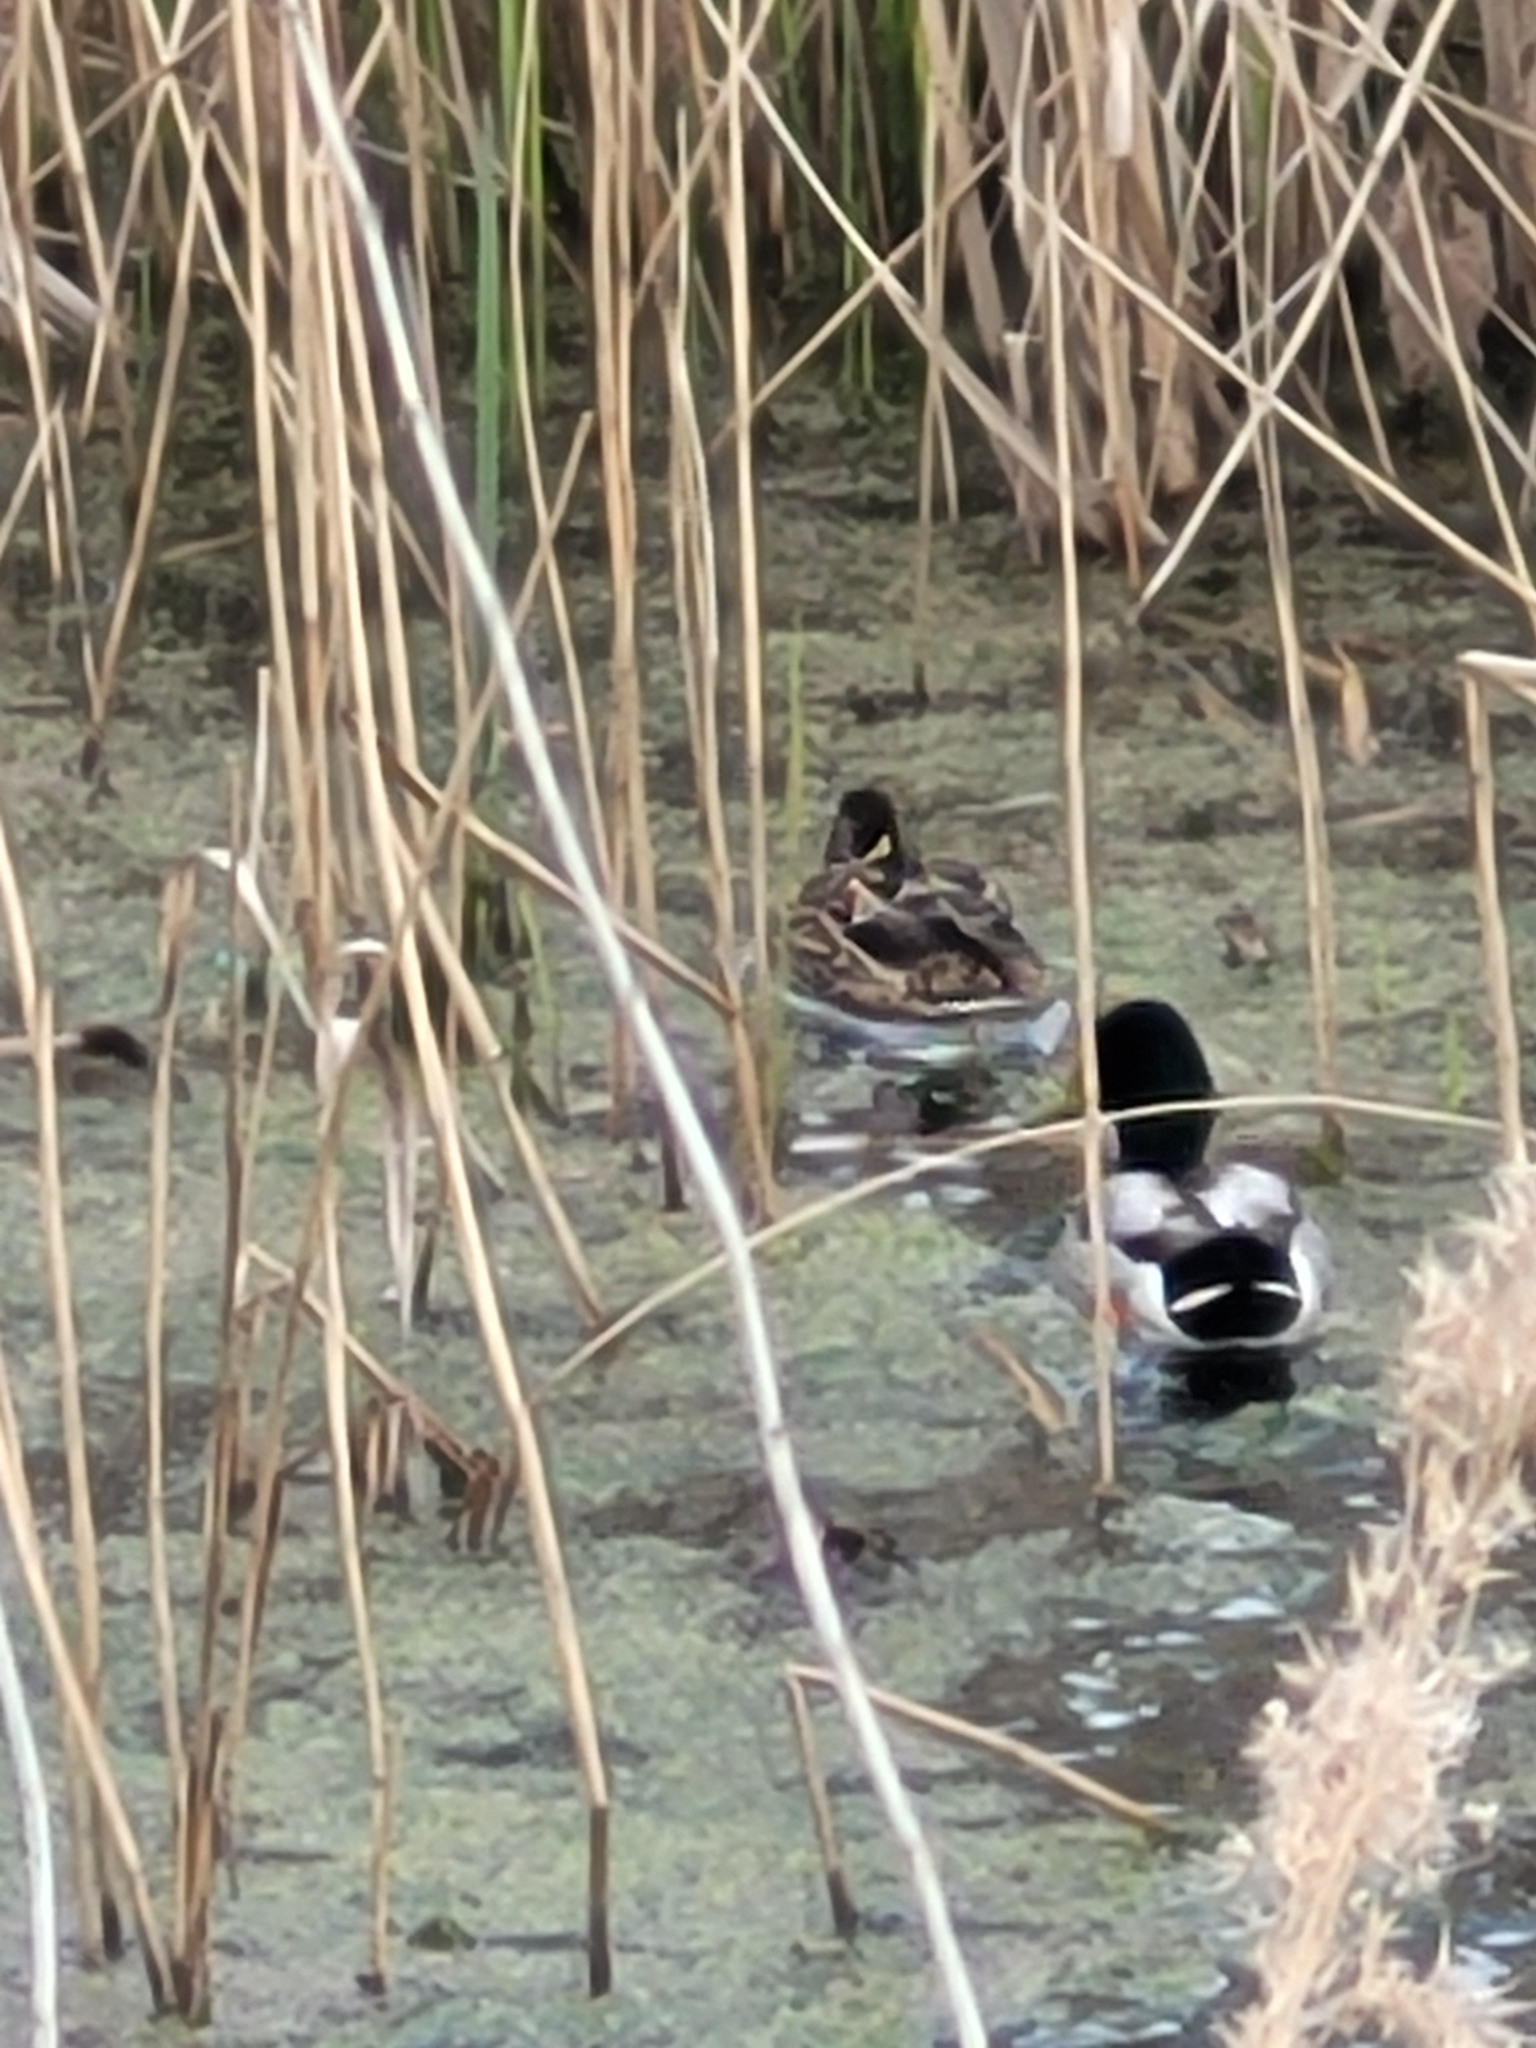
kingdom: Animalia
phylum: Chordata
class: Aves
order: Anseriformes
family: Anatidae
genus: Anas
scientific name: Anas platyrhynchos
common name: Mallard
